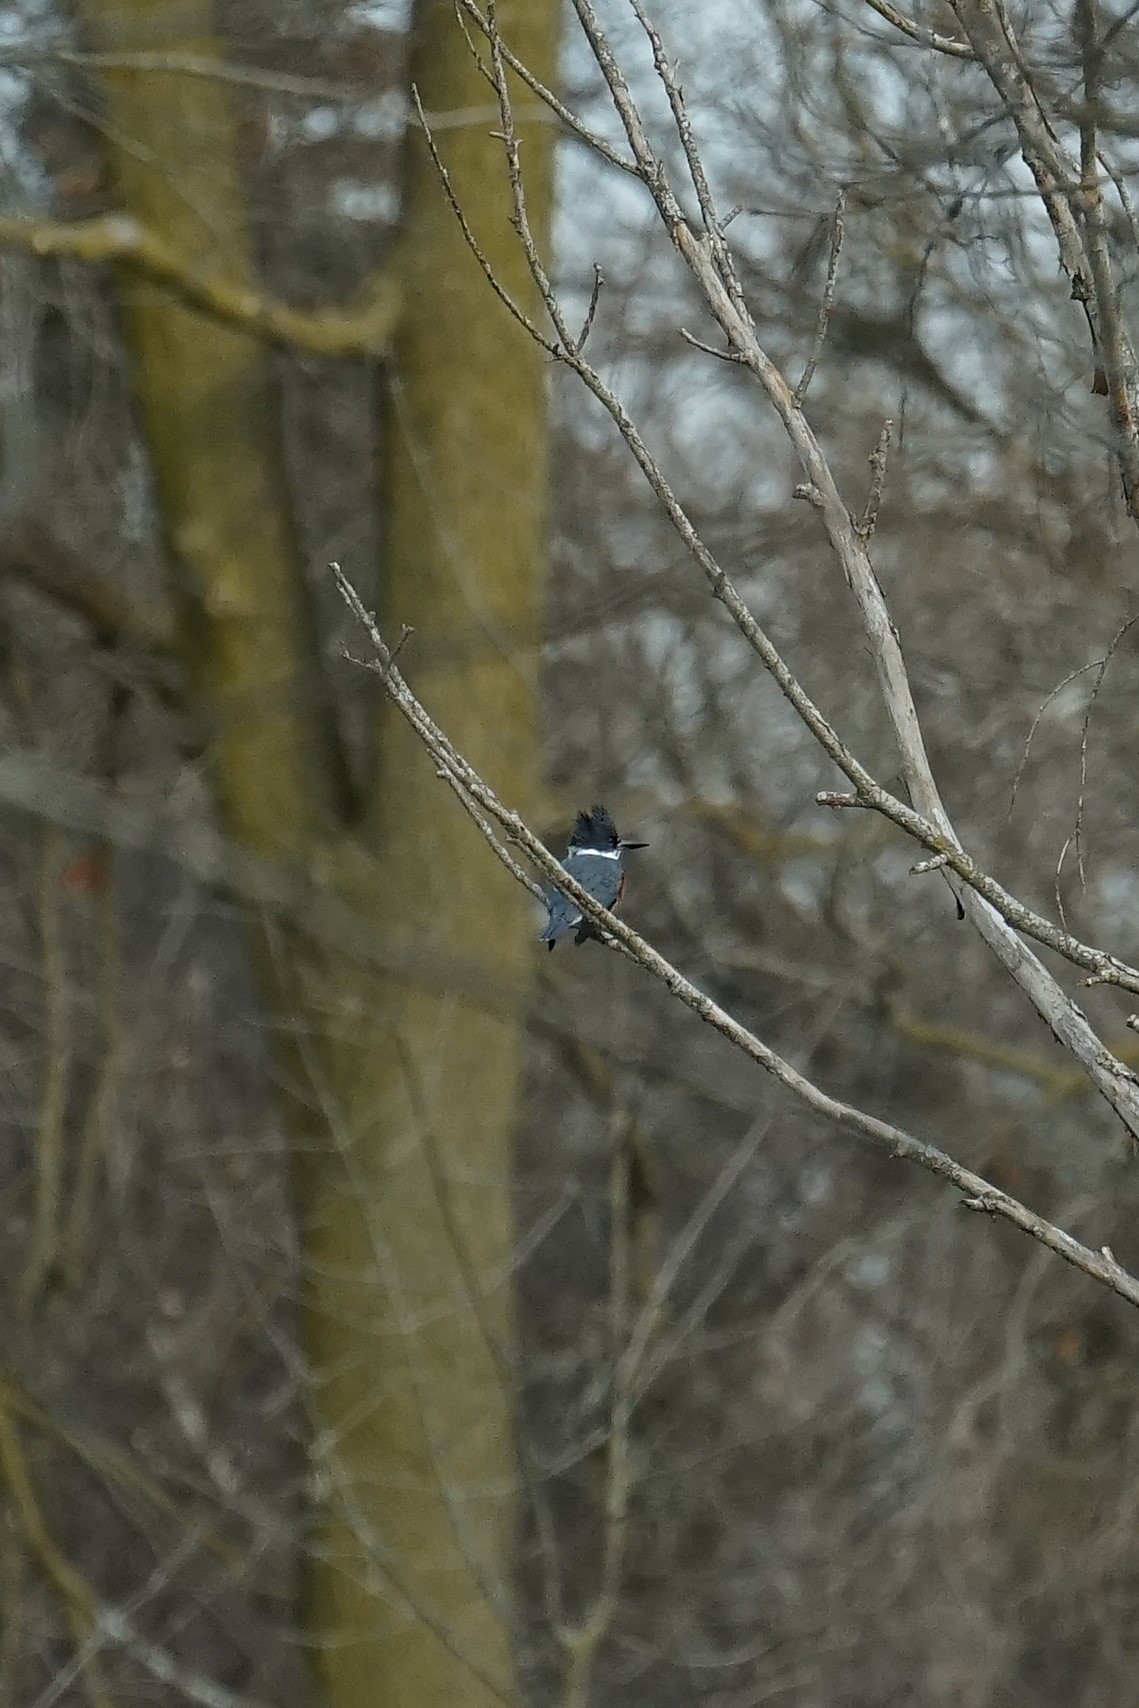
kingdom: Animalia
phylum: Chordata
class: Aves
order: Coraciiformes
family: Alcedinidae
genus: Megaceryle
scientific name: Megaceryle alcyon
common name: Belted kingfisher
